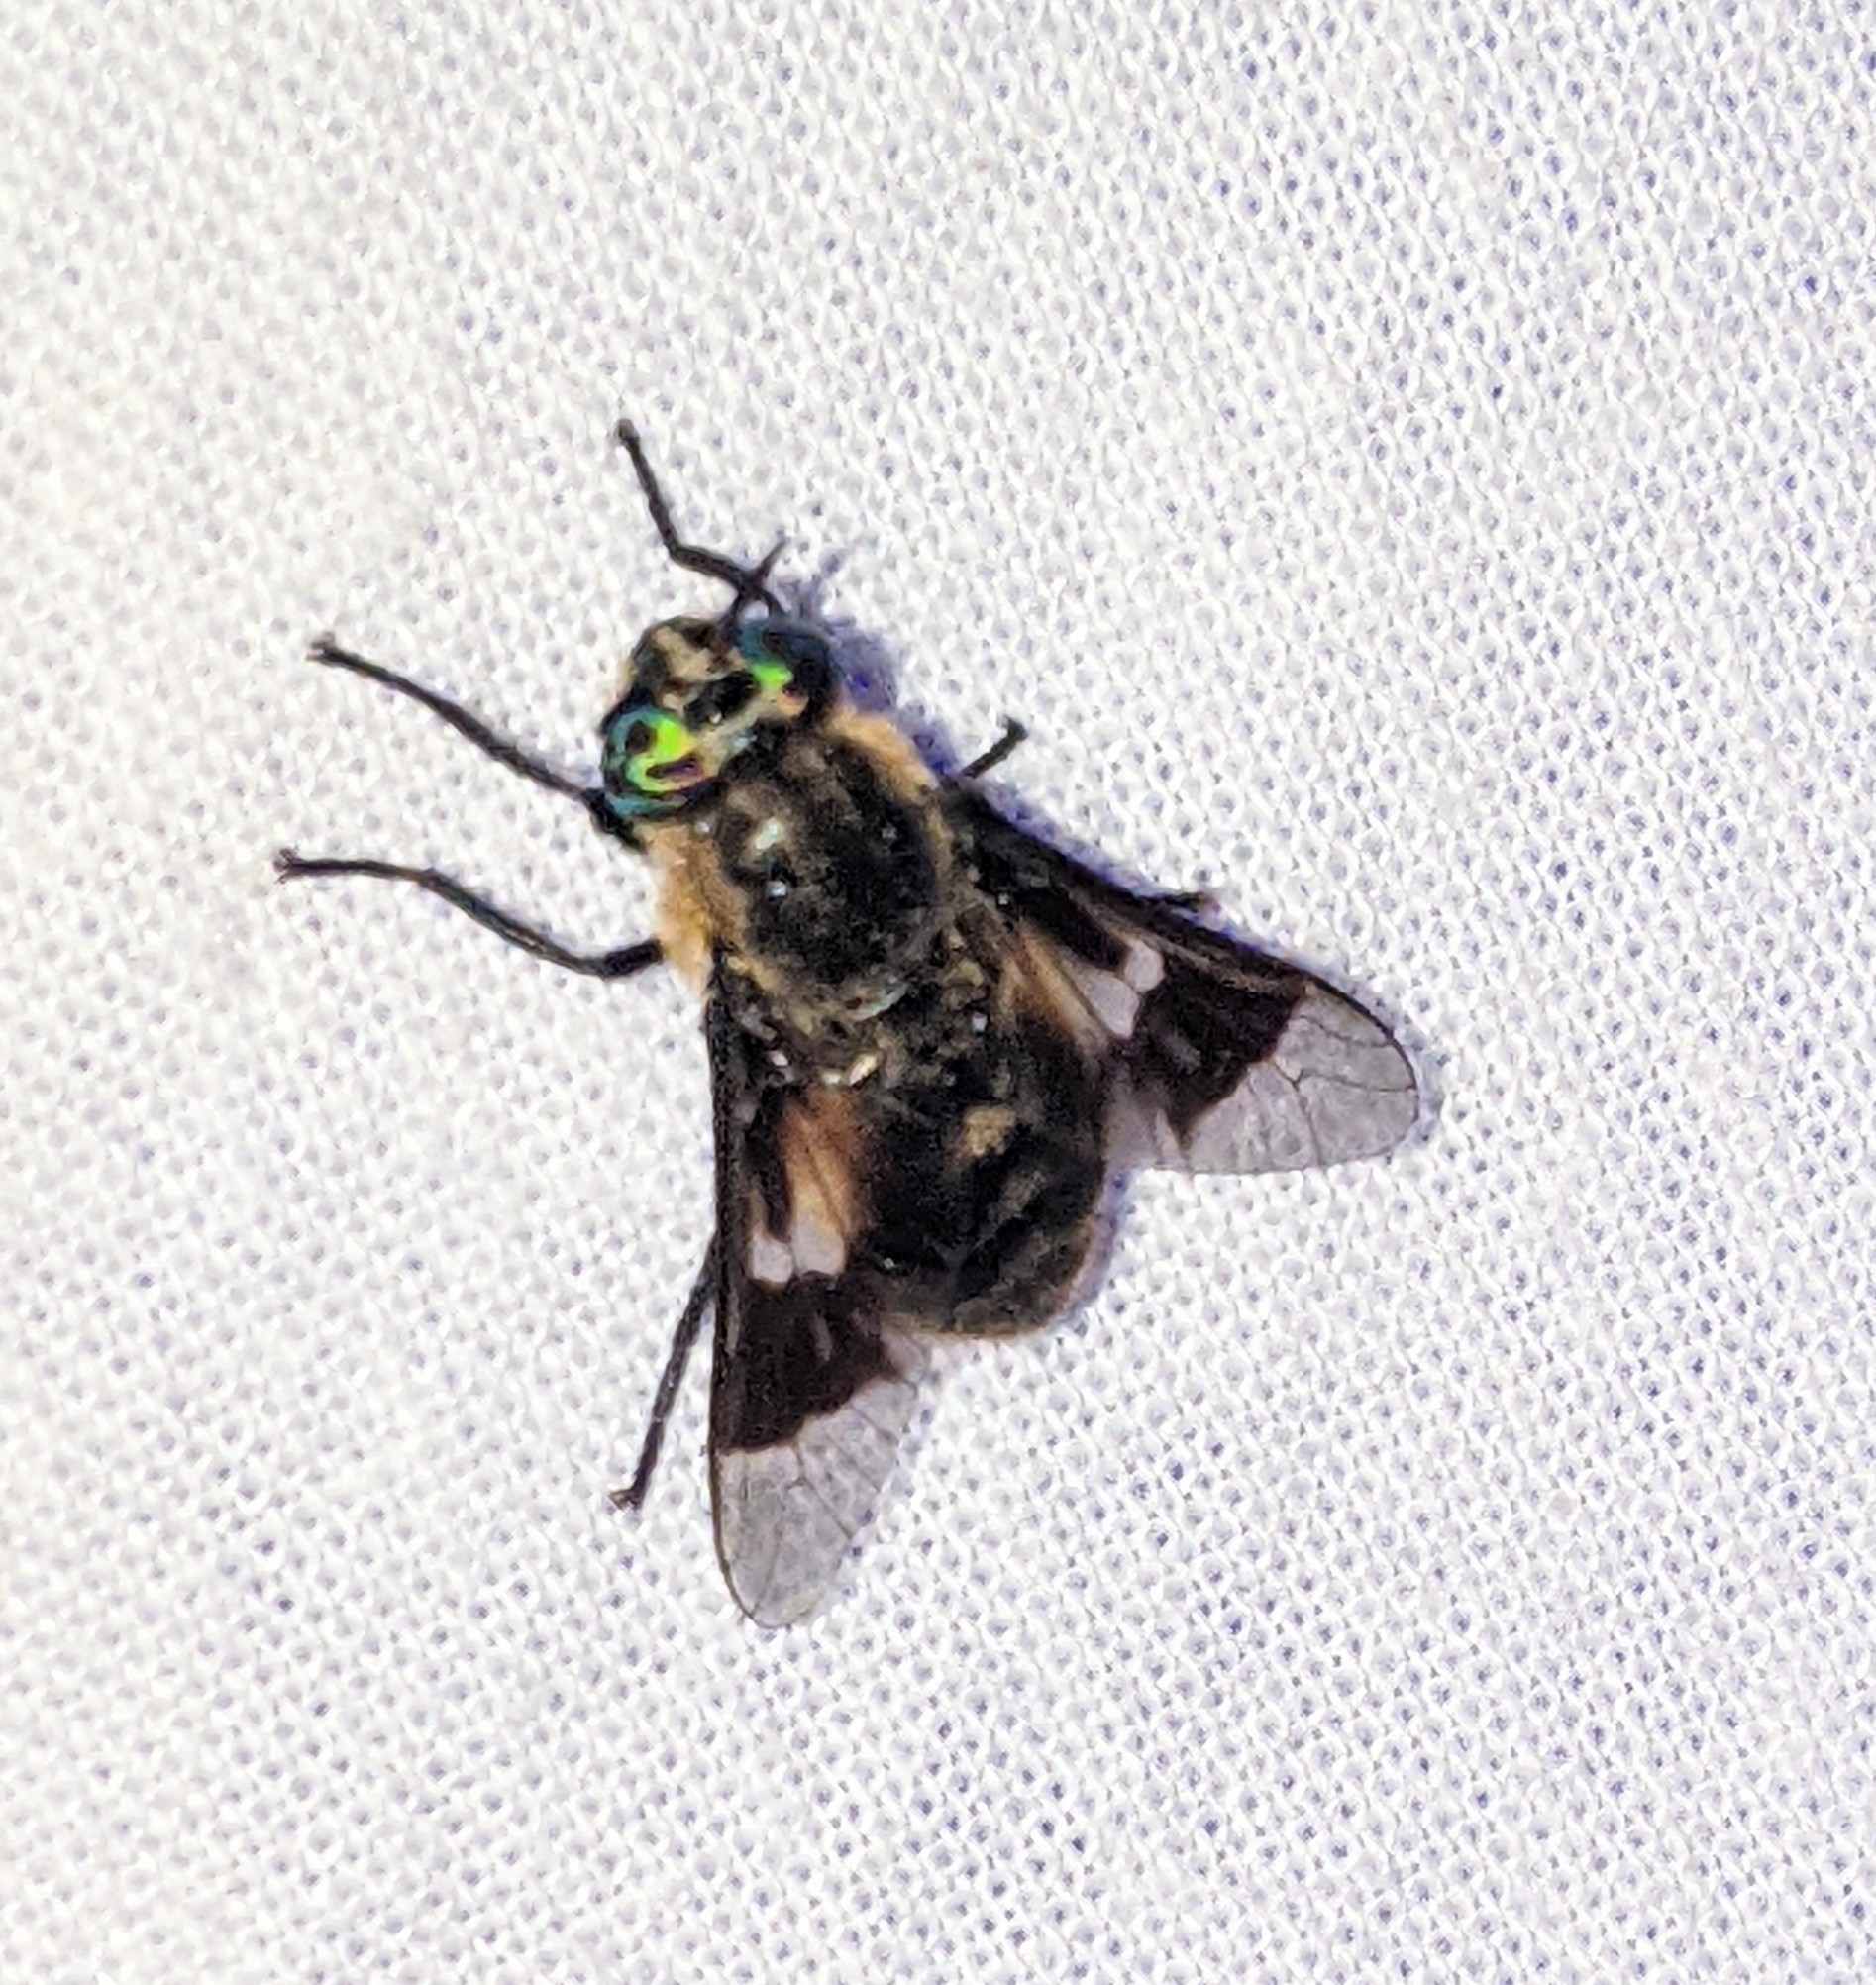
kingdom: Animalia
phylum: Arthropoda
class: Insecta
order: Diptera
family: Tabanidae
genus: Chrysops
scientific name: Chrysops excitans
